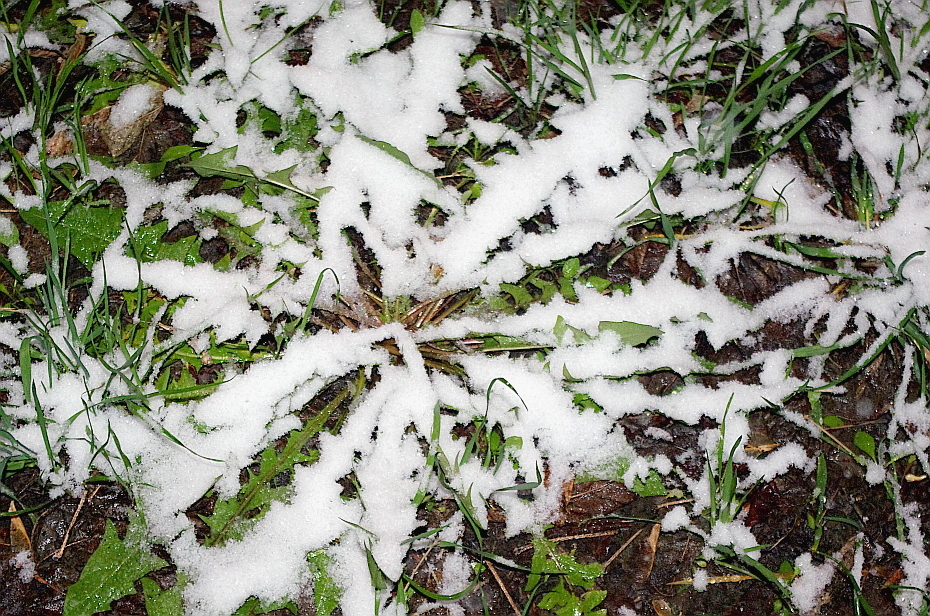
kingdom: Plantae
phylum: Tracheophyta
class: Magnoliopsida
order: Asterales
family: Asteraceae
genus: Taraxacum
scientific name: Taraxacum officinale
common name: Common dandelion
